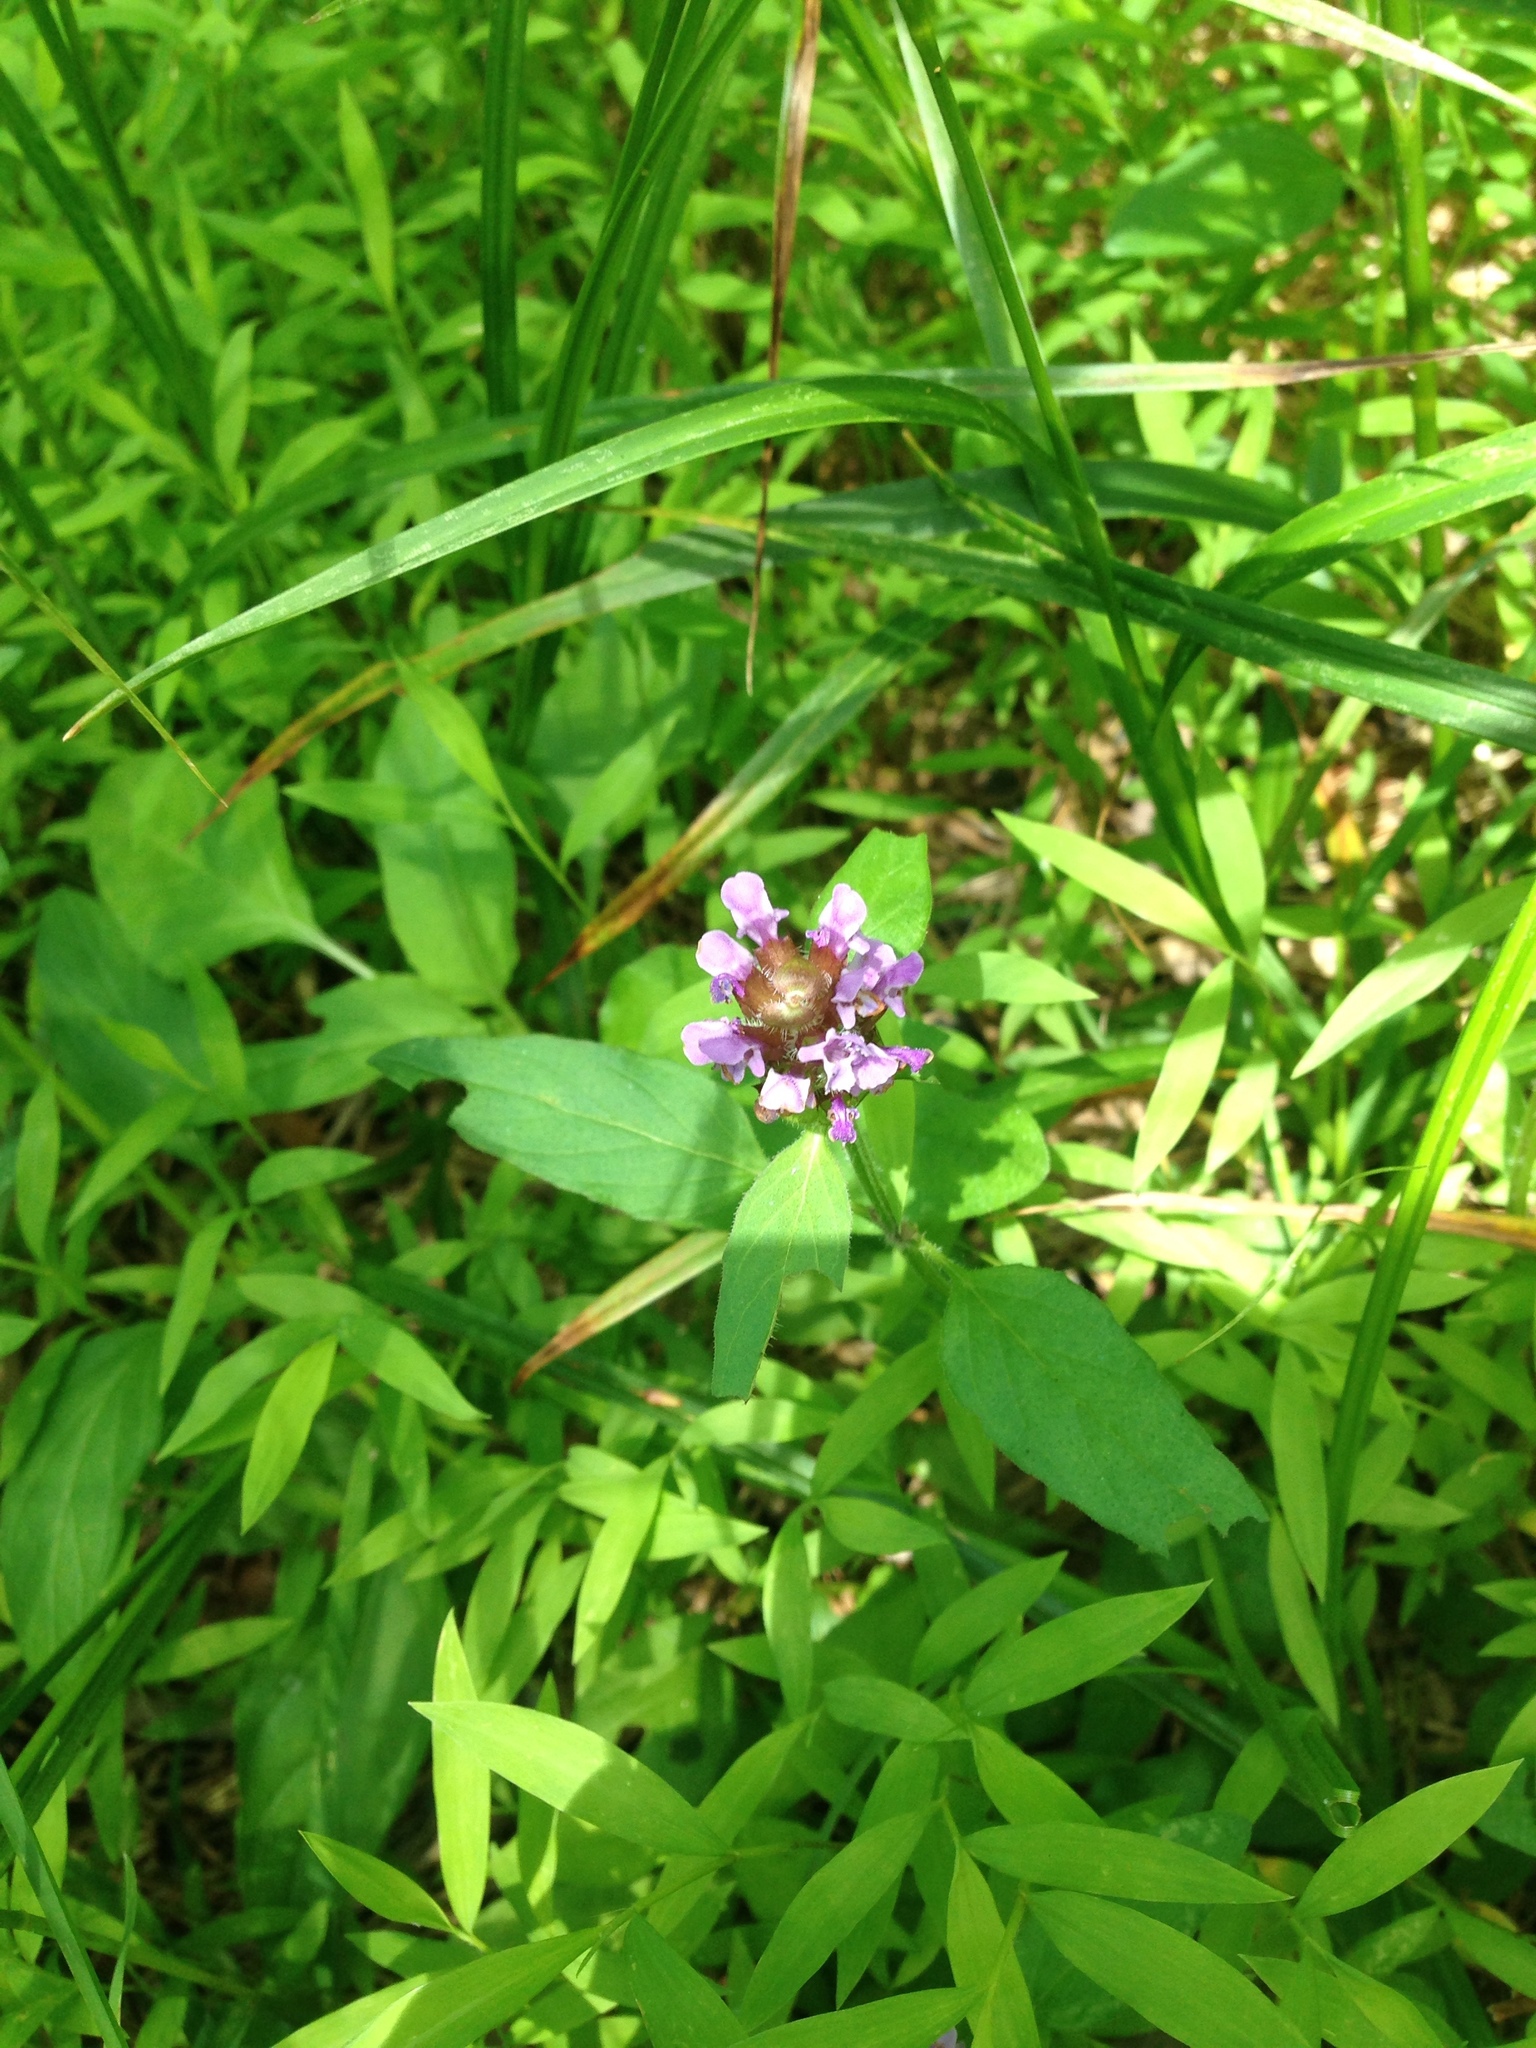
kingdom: Plantae
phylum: Tracheophyta
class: Magnoliopsida
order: Lamiales
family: Lamiaceae
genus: Prunella
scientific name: Prunella vulgaris
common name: Heal-all
